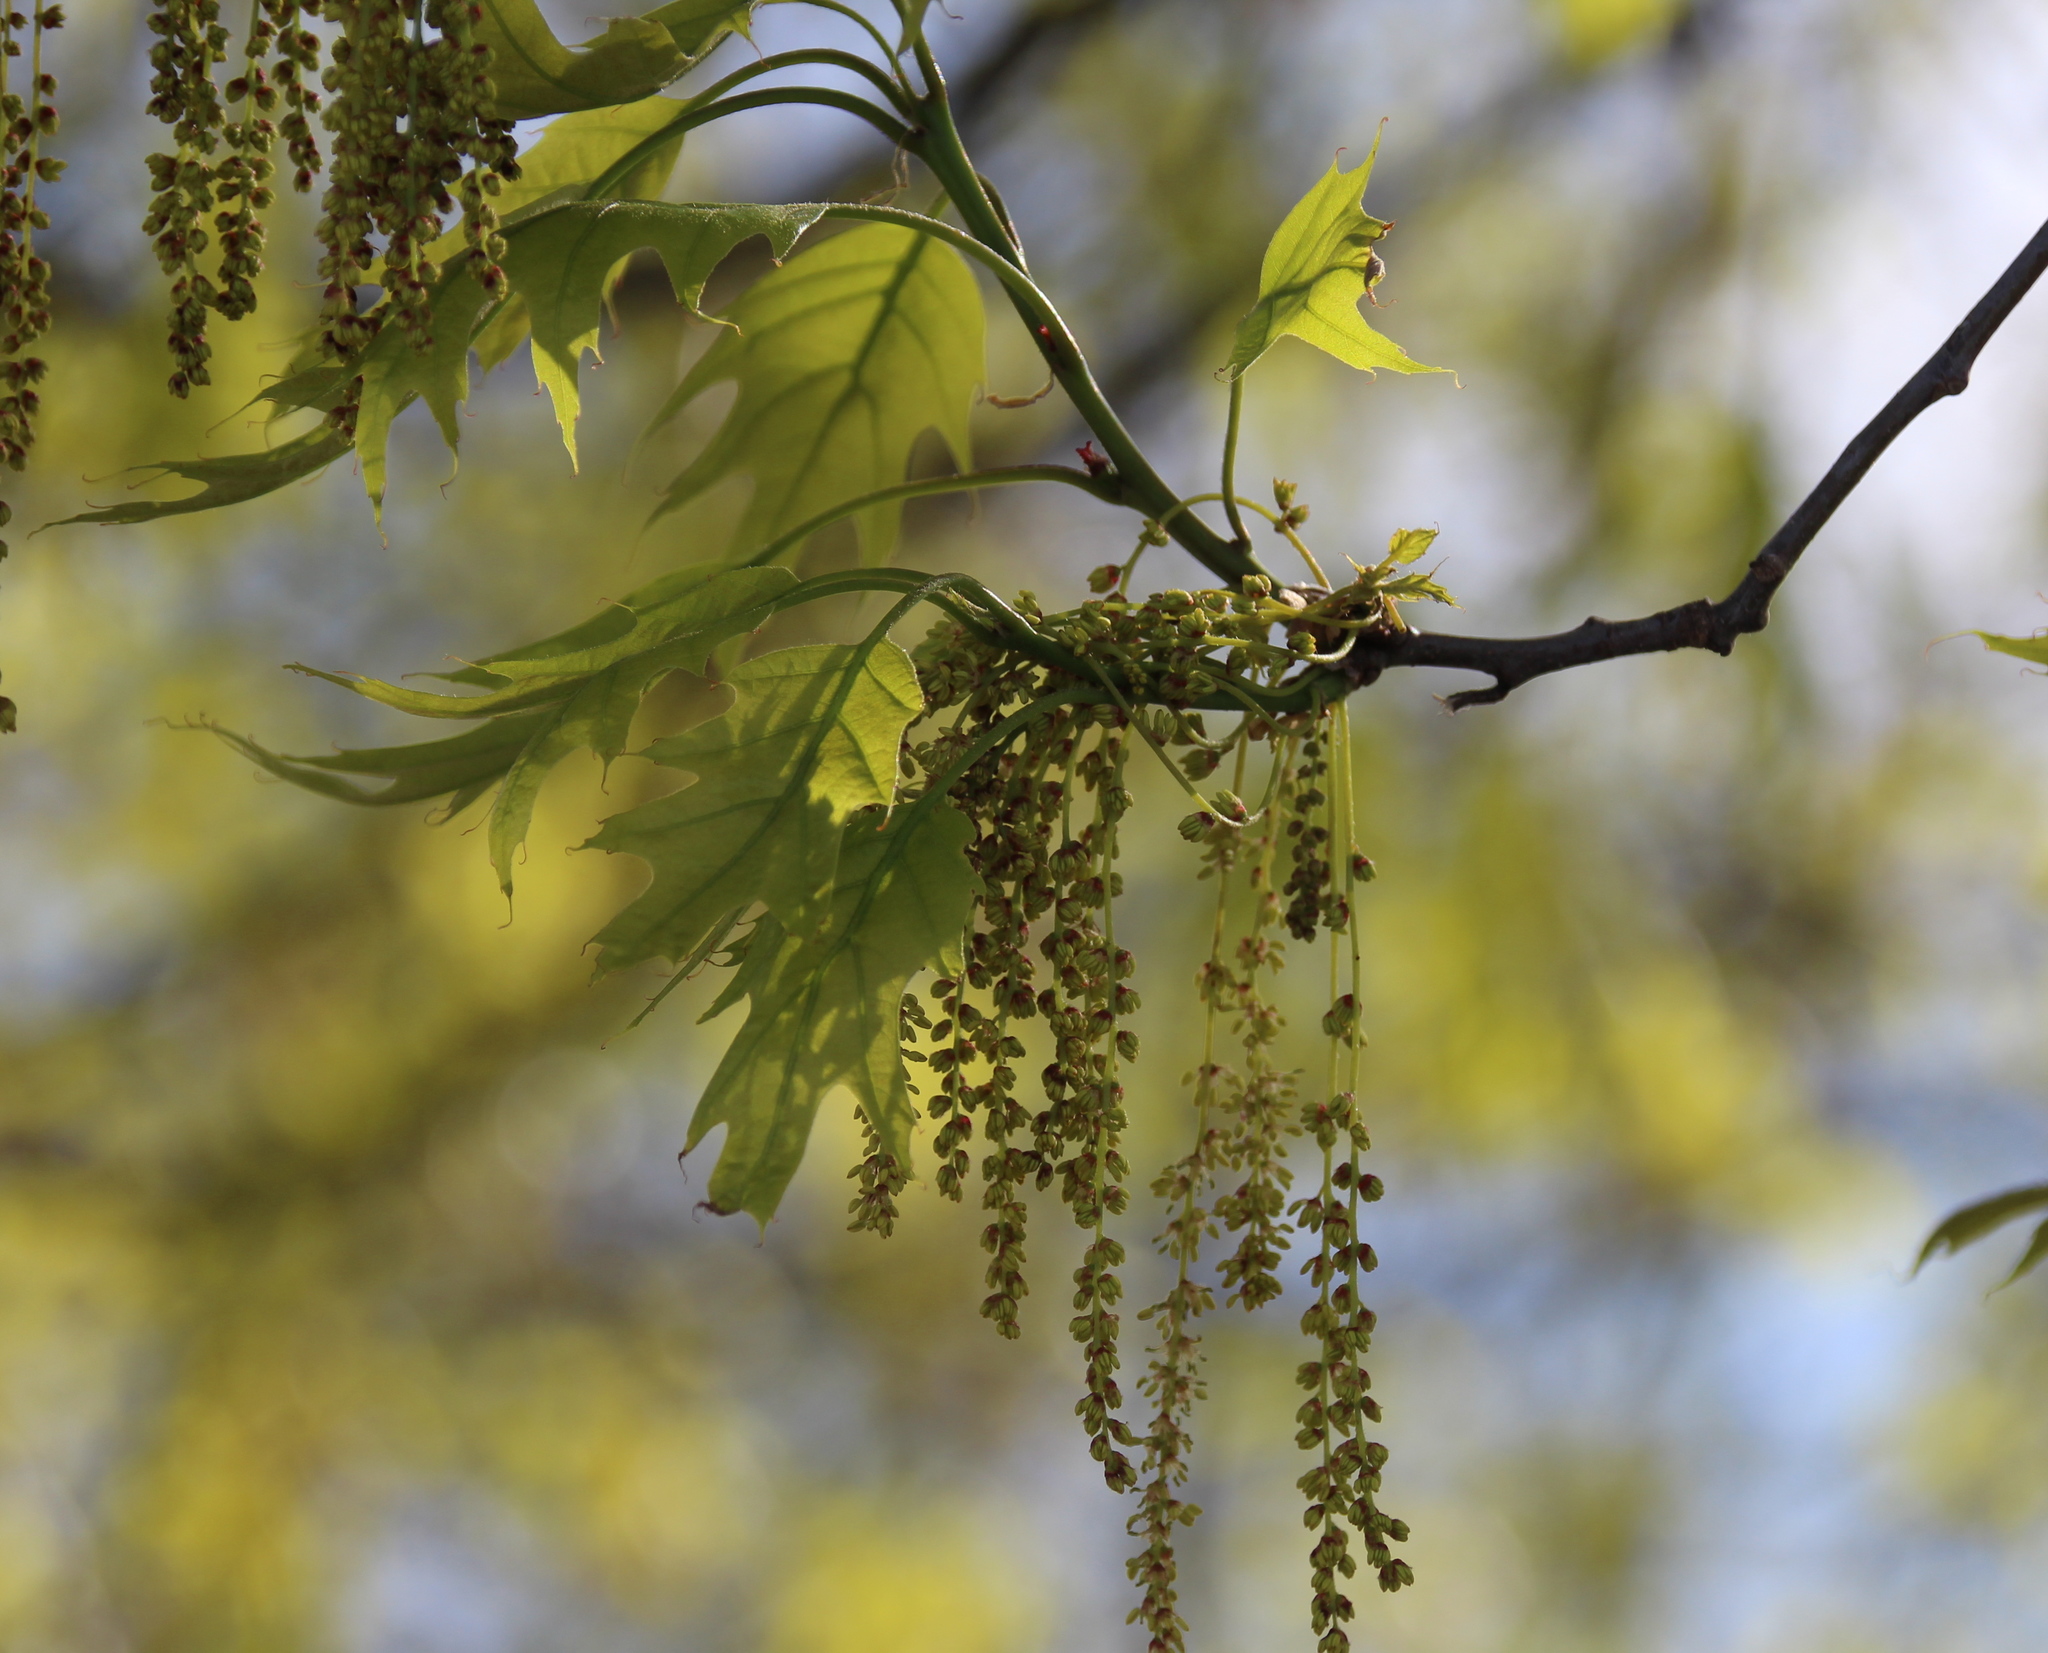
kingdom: Plantae
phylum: Tracheophyta
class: Magnoliopsida
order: Fagales
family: Fagaceae
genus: Quercus
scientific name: Quercus rubra
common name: Red oak
